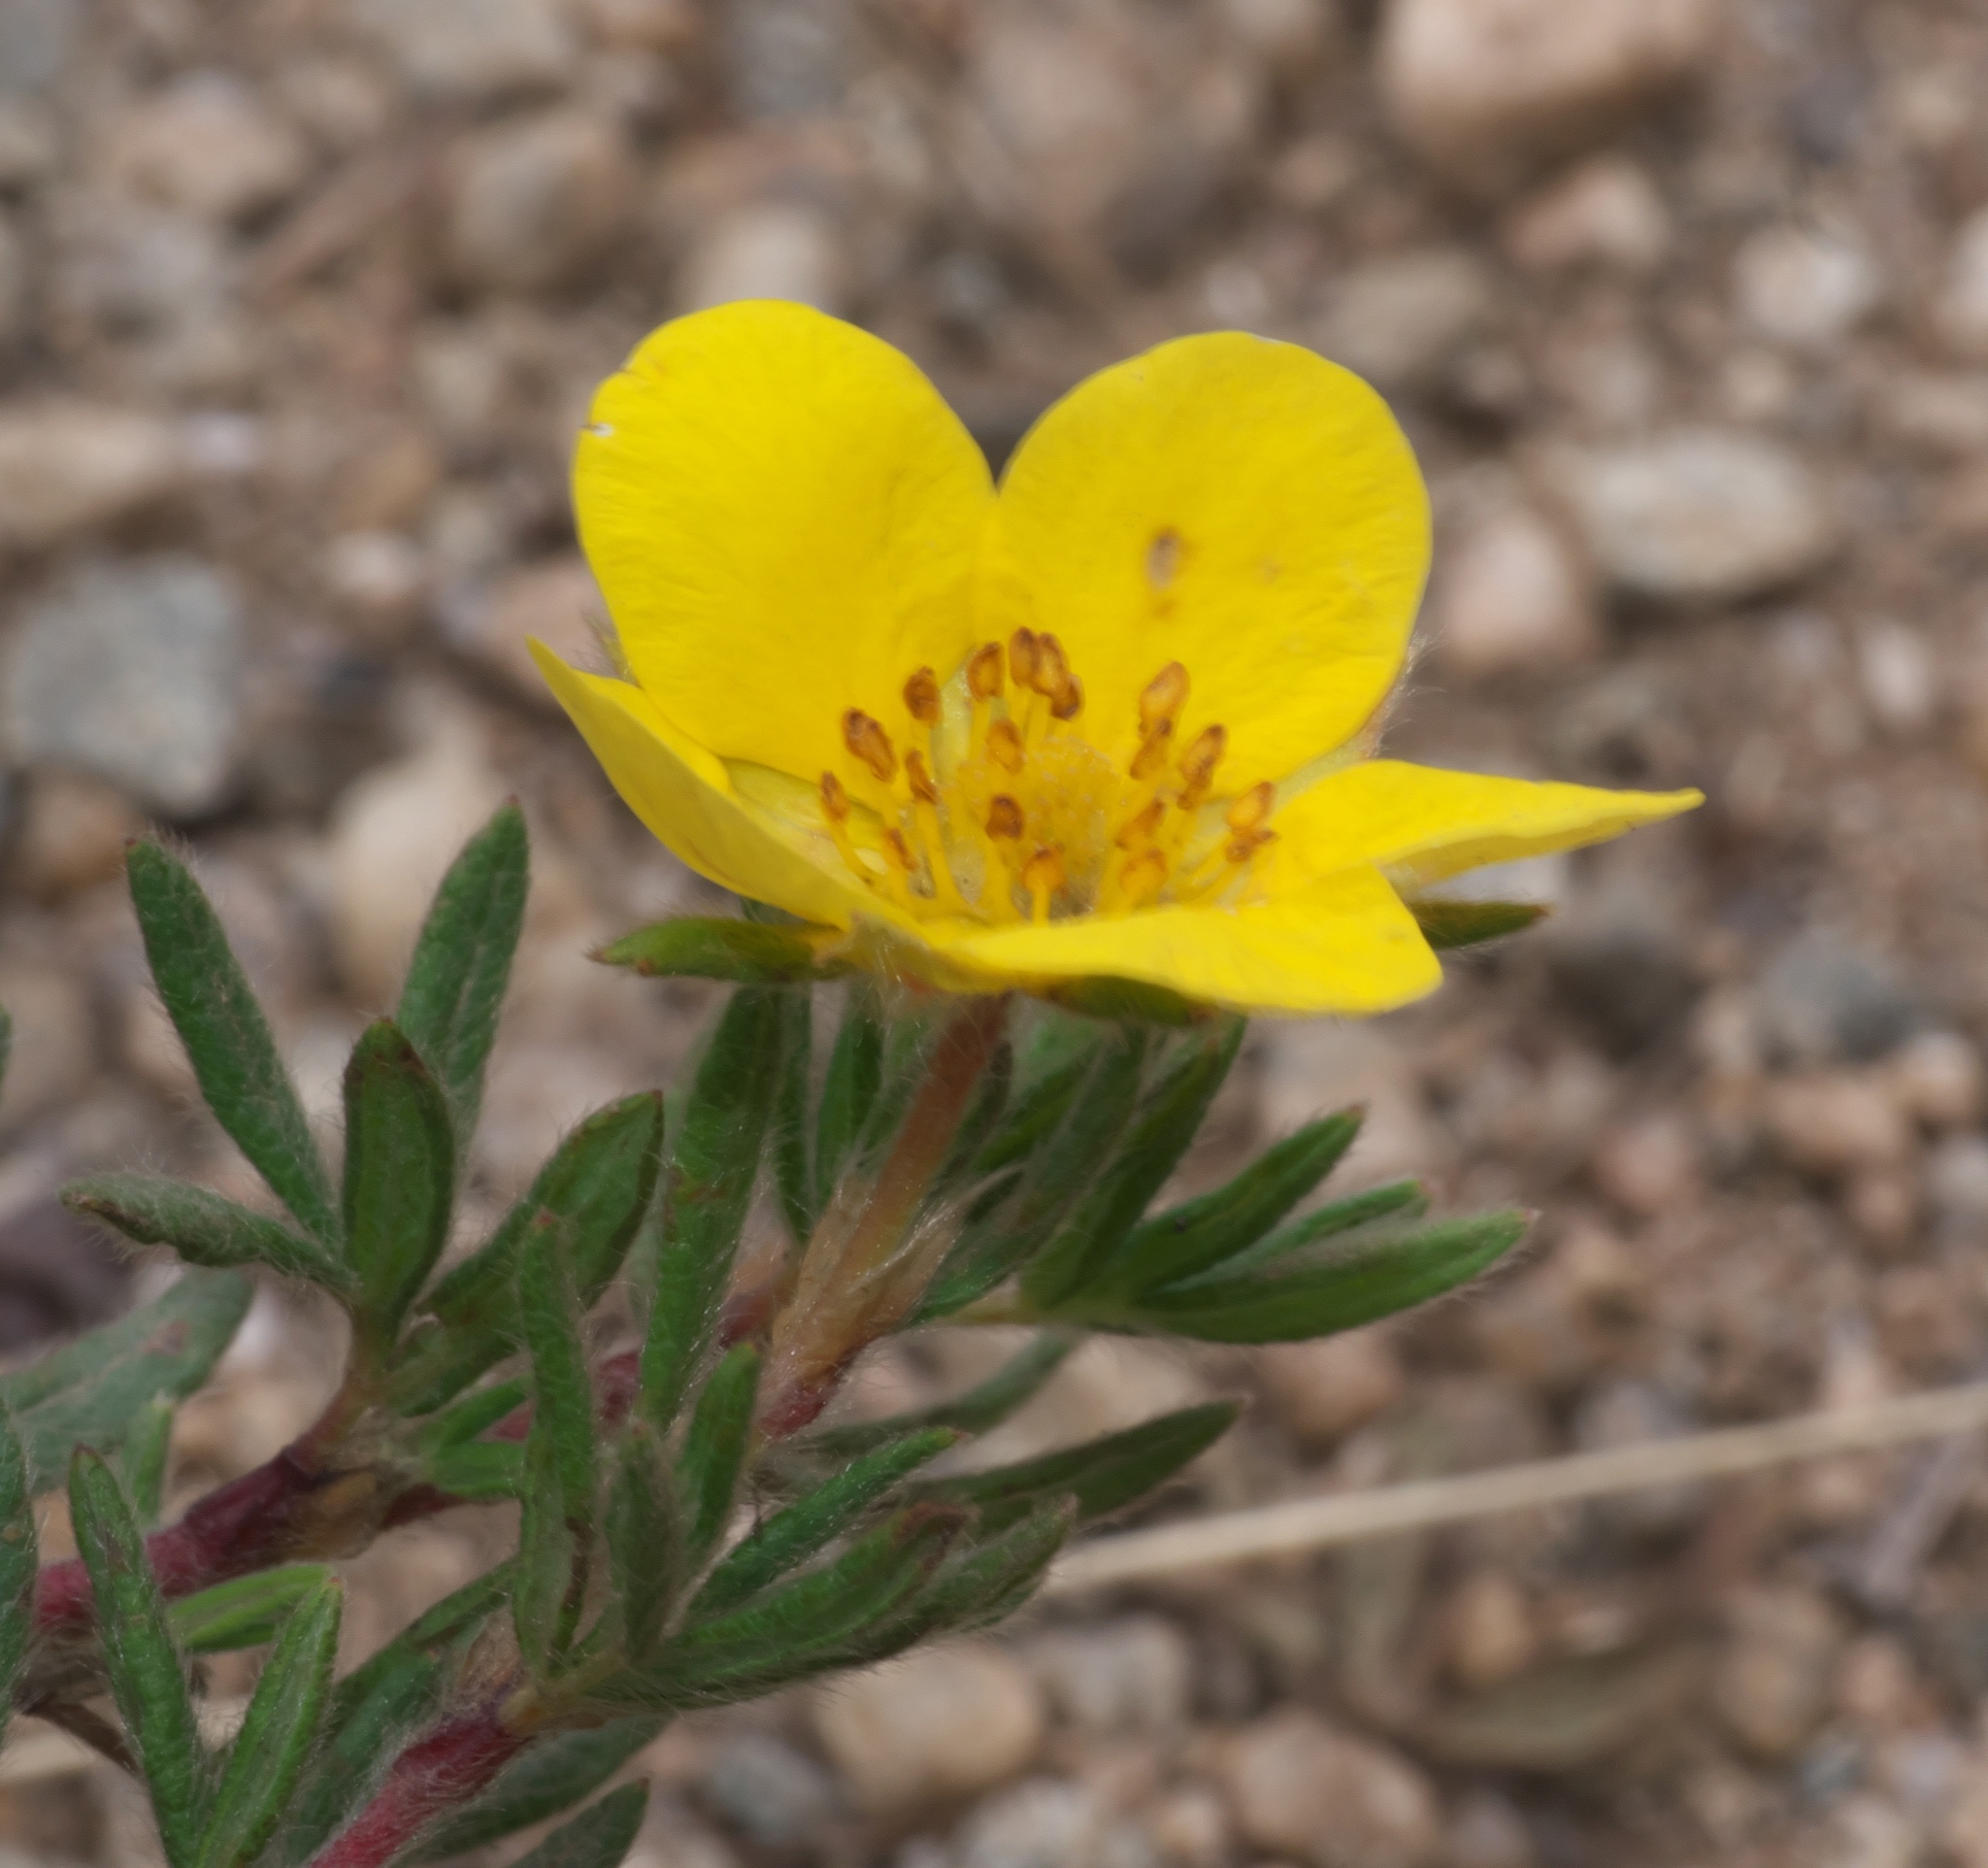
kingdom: Plantae
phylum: Tracheophyta
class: Magnoliopsida
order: Rosales
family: Rosaceae
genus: Dasiphora
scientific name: Dasiphora fruticosa
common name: Shrubby cinquefoil
